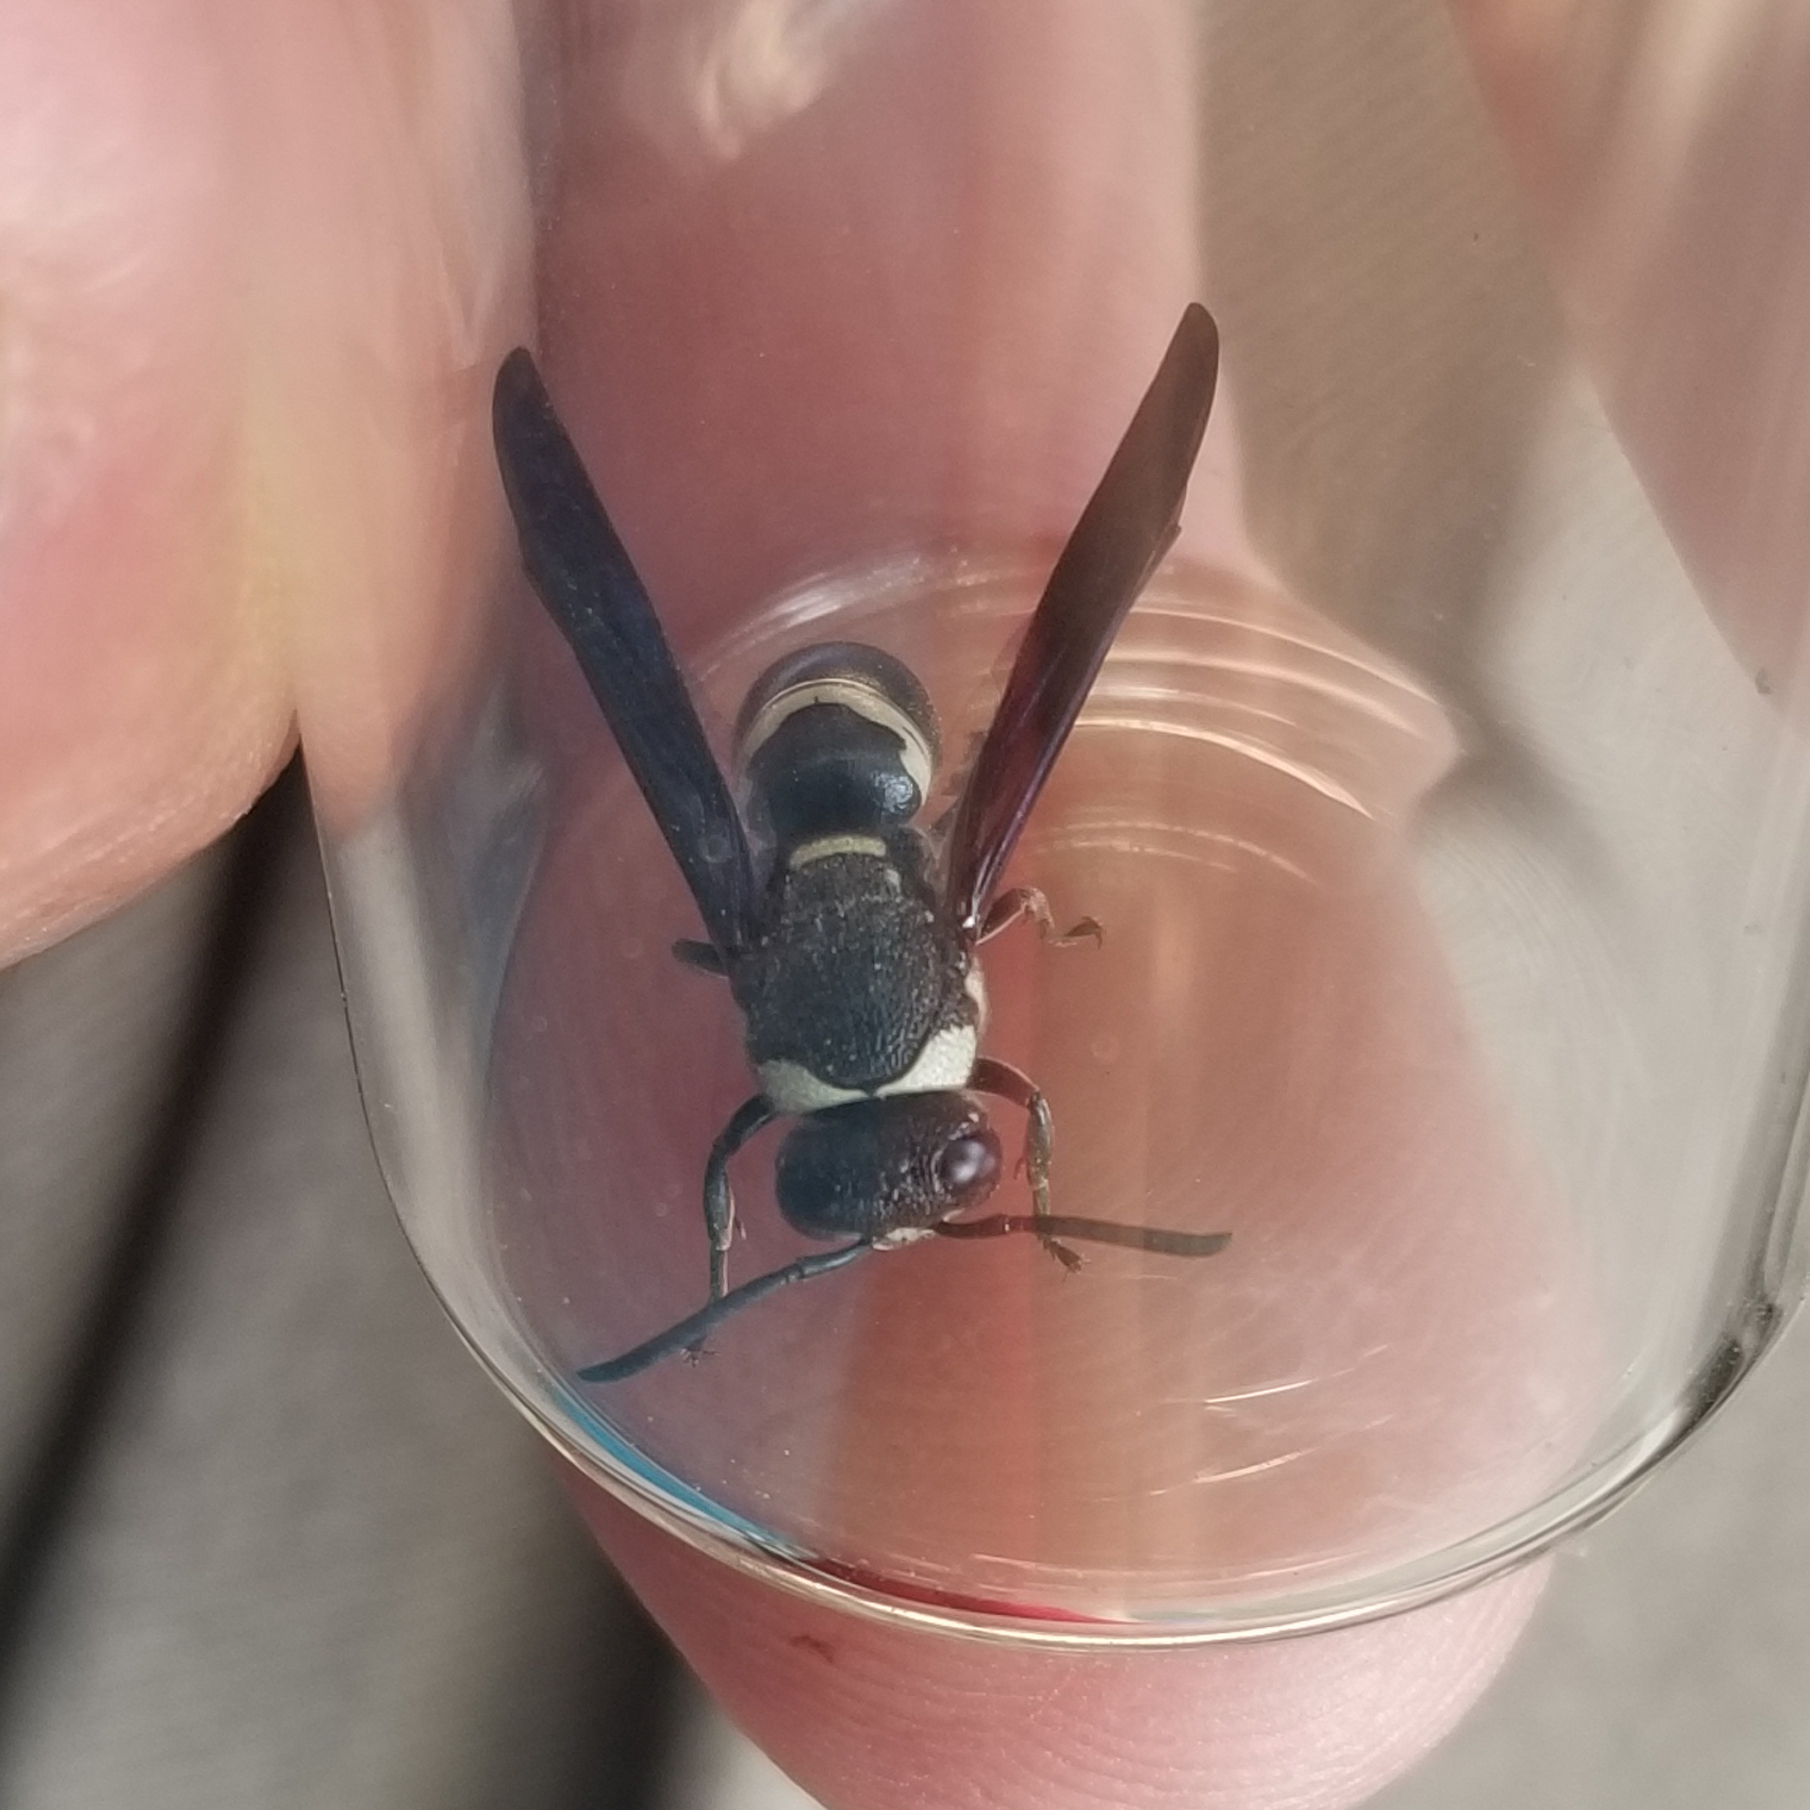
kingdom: Animalia
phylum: Arthropoda
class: Insecta
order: Hymenoptera
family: Eumenidae
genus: Euodynerus
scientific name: Euodynerus megaera
